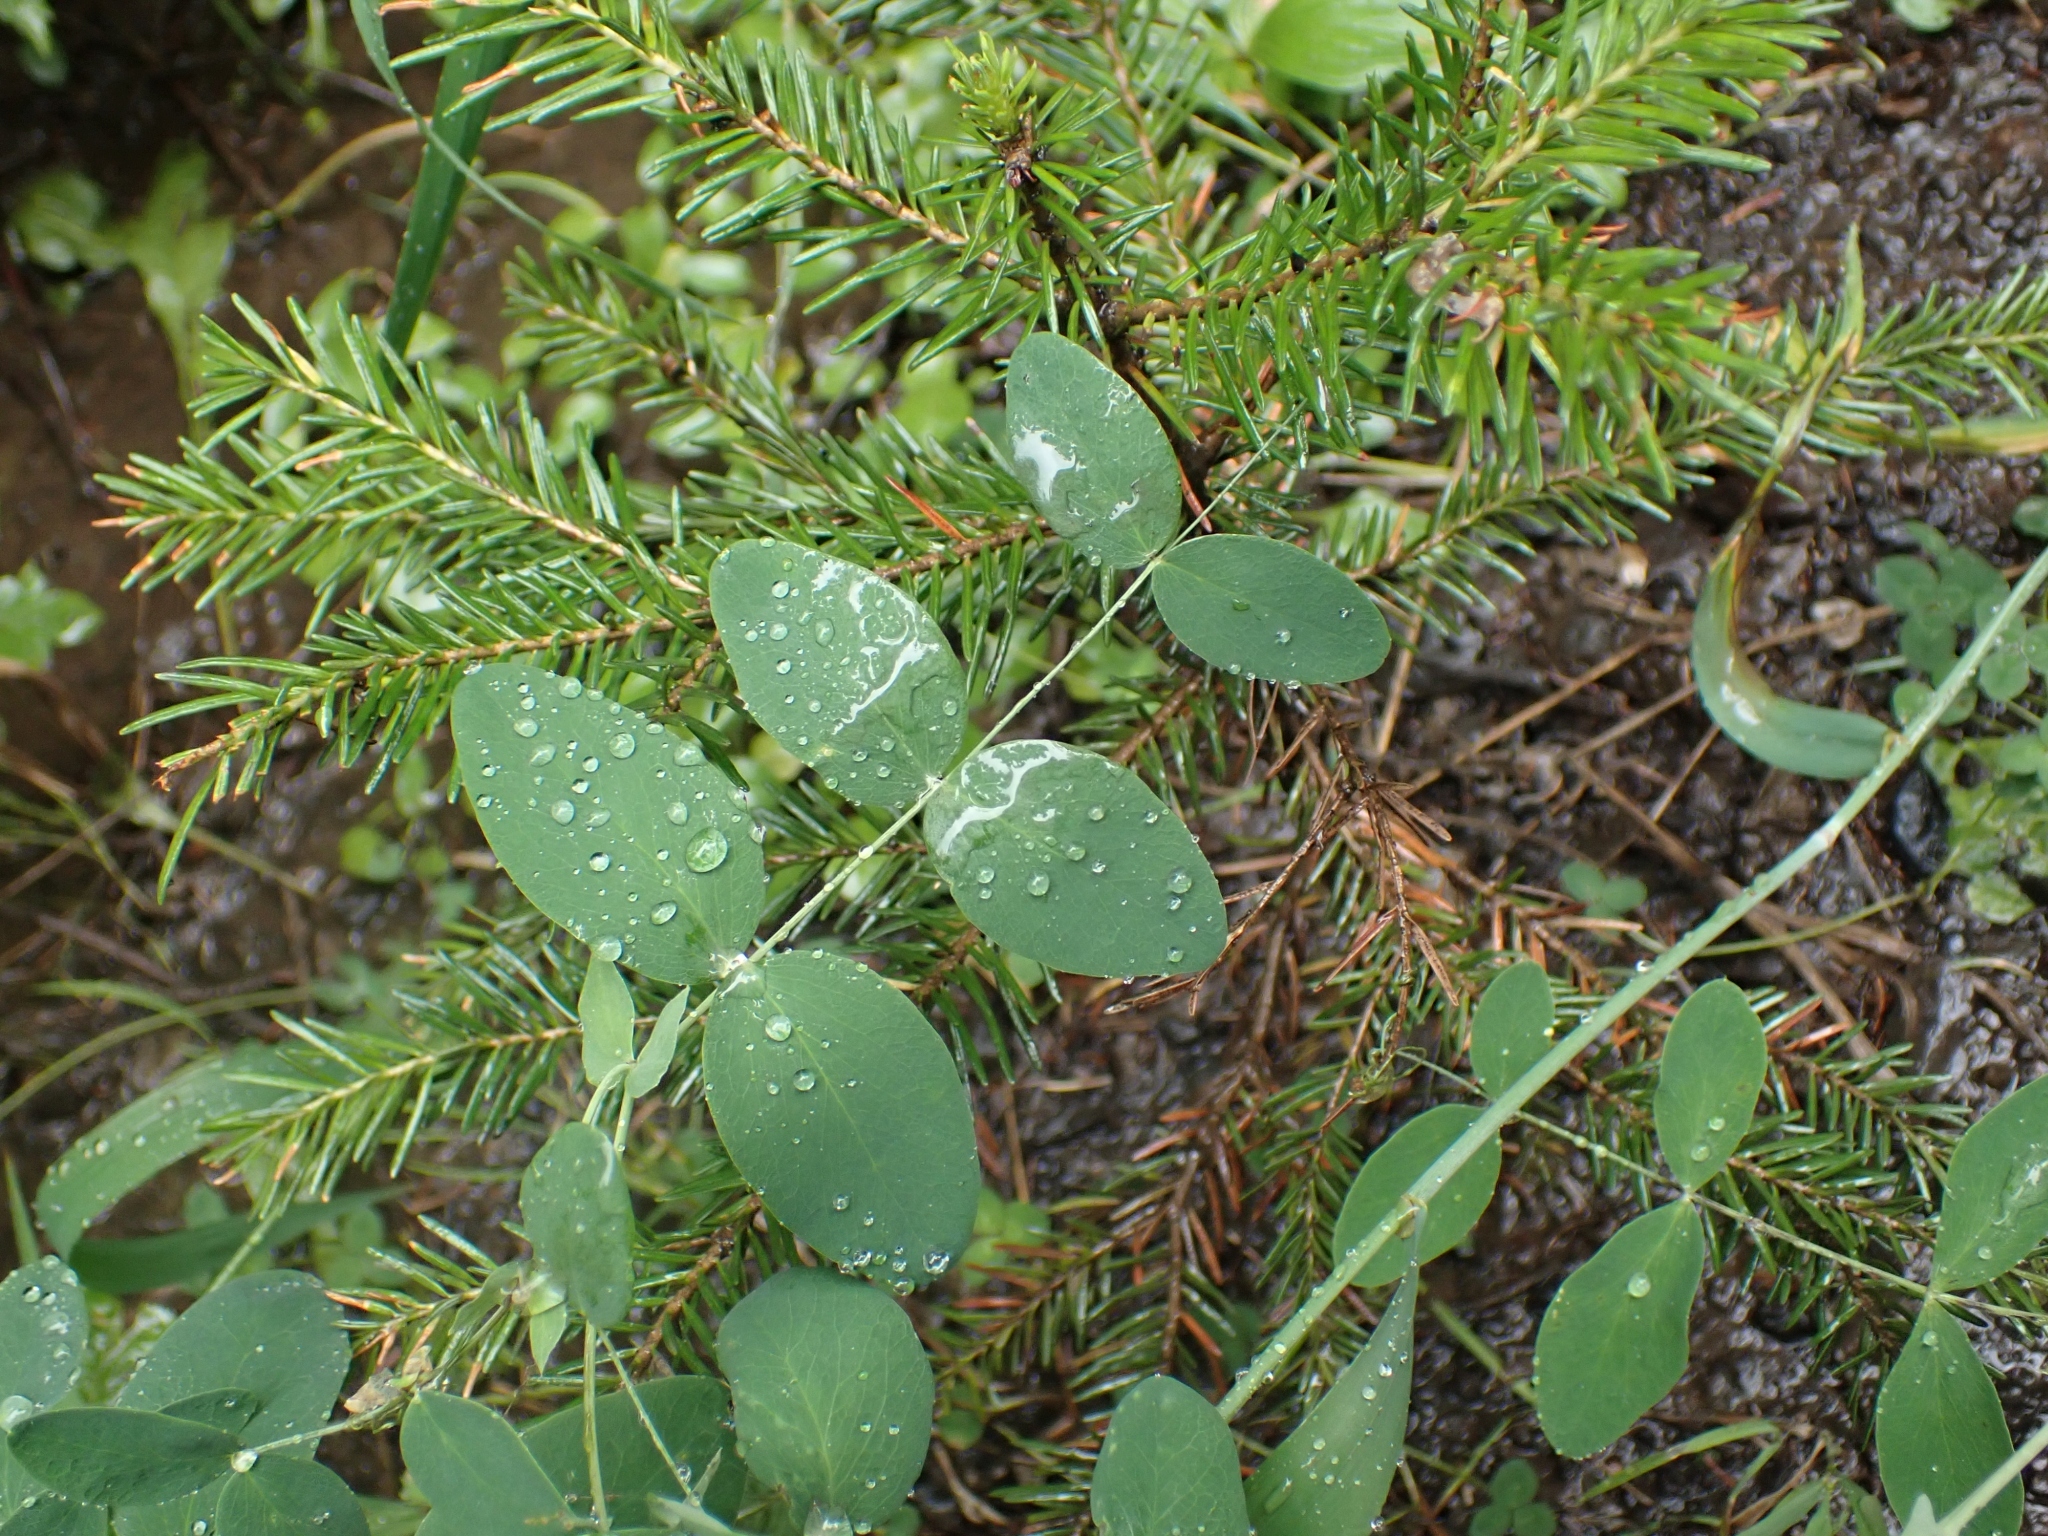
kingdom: Plantae
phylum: Tracheophyta
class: Magnoliopsida
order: Fabales
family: Fabaceae
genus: Lathyrus
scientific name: Lathyrus ochroleucus
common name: Pale vetchling
